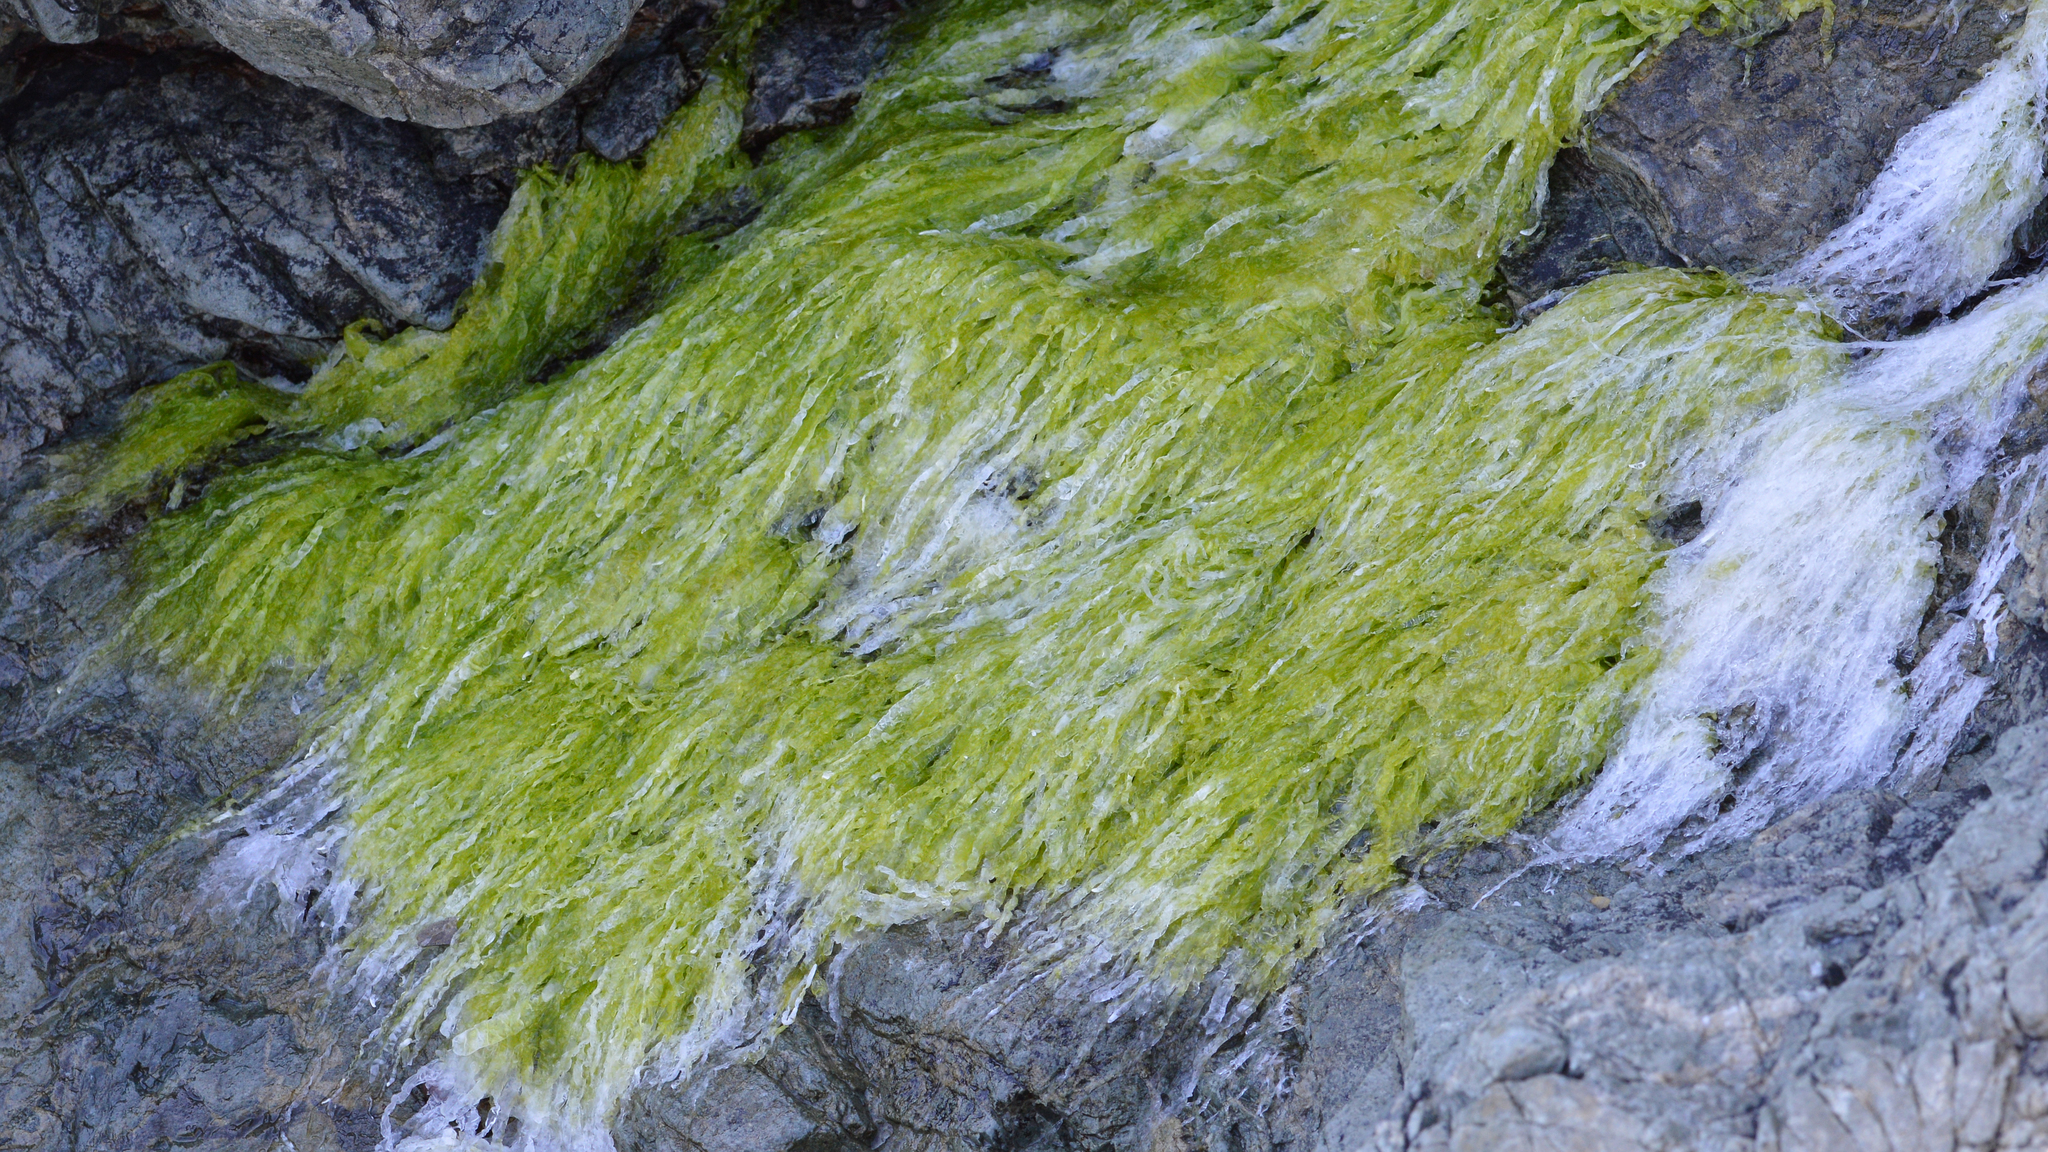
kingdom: Plantae
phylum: Chlorophyta
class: Ulvophyceae
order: Ulvales
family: Ulvaceae
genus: Ulva
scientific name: Ulva intestinalis
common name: Gut weed
